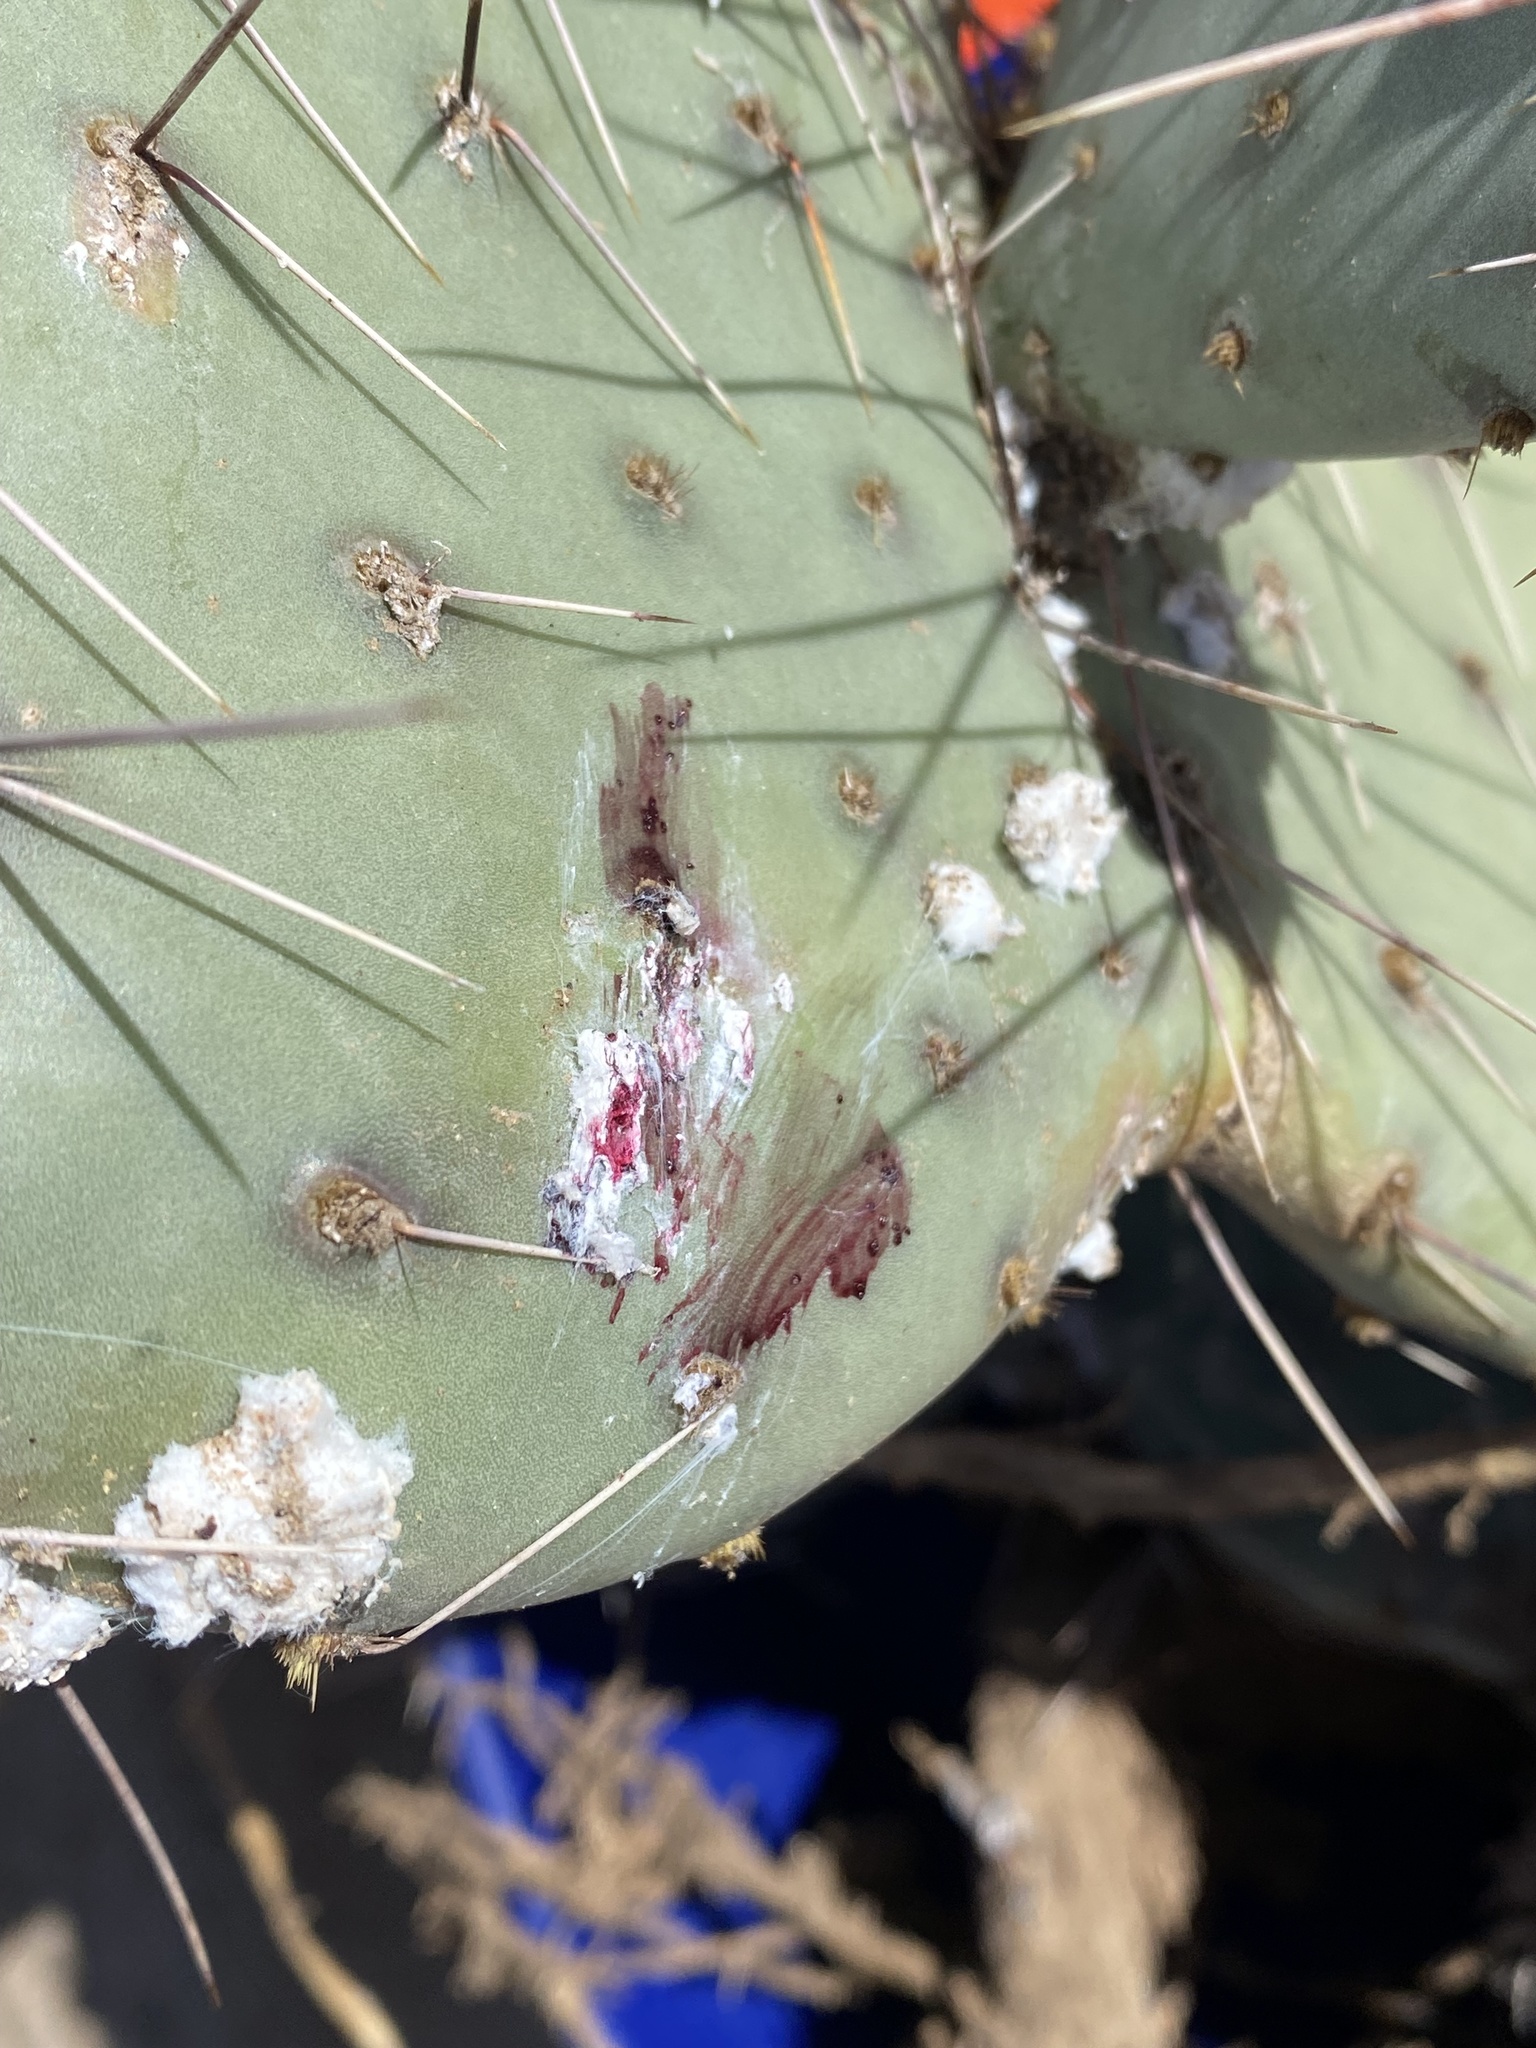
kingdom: Animalia
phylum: Arthropoda
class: Insecta
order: Hemiptera
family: Dactylopiidae
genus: Dactylopius
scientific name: Dactylopius
